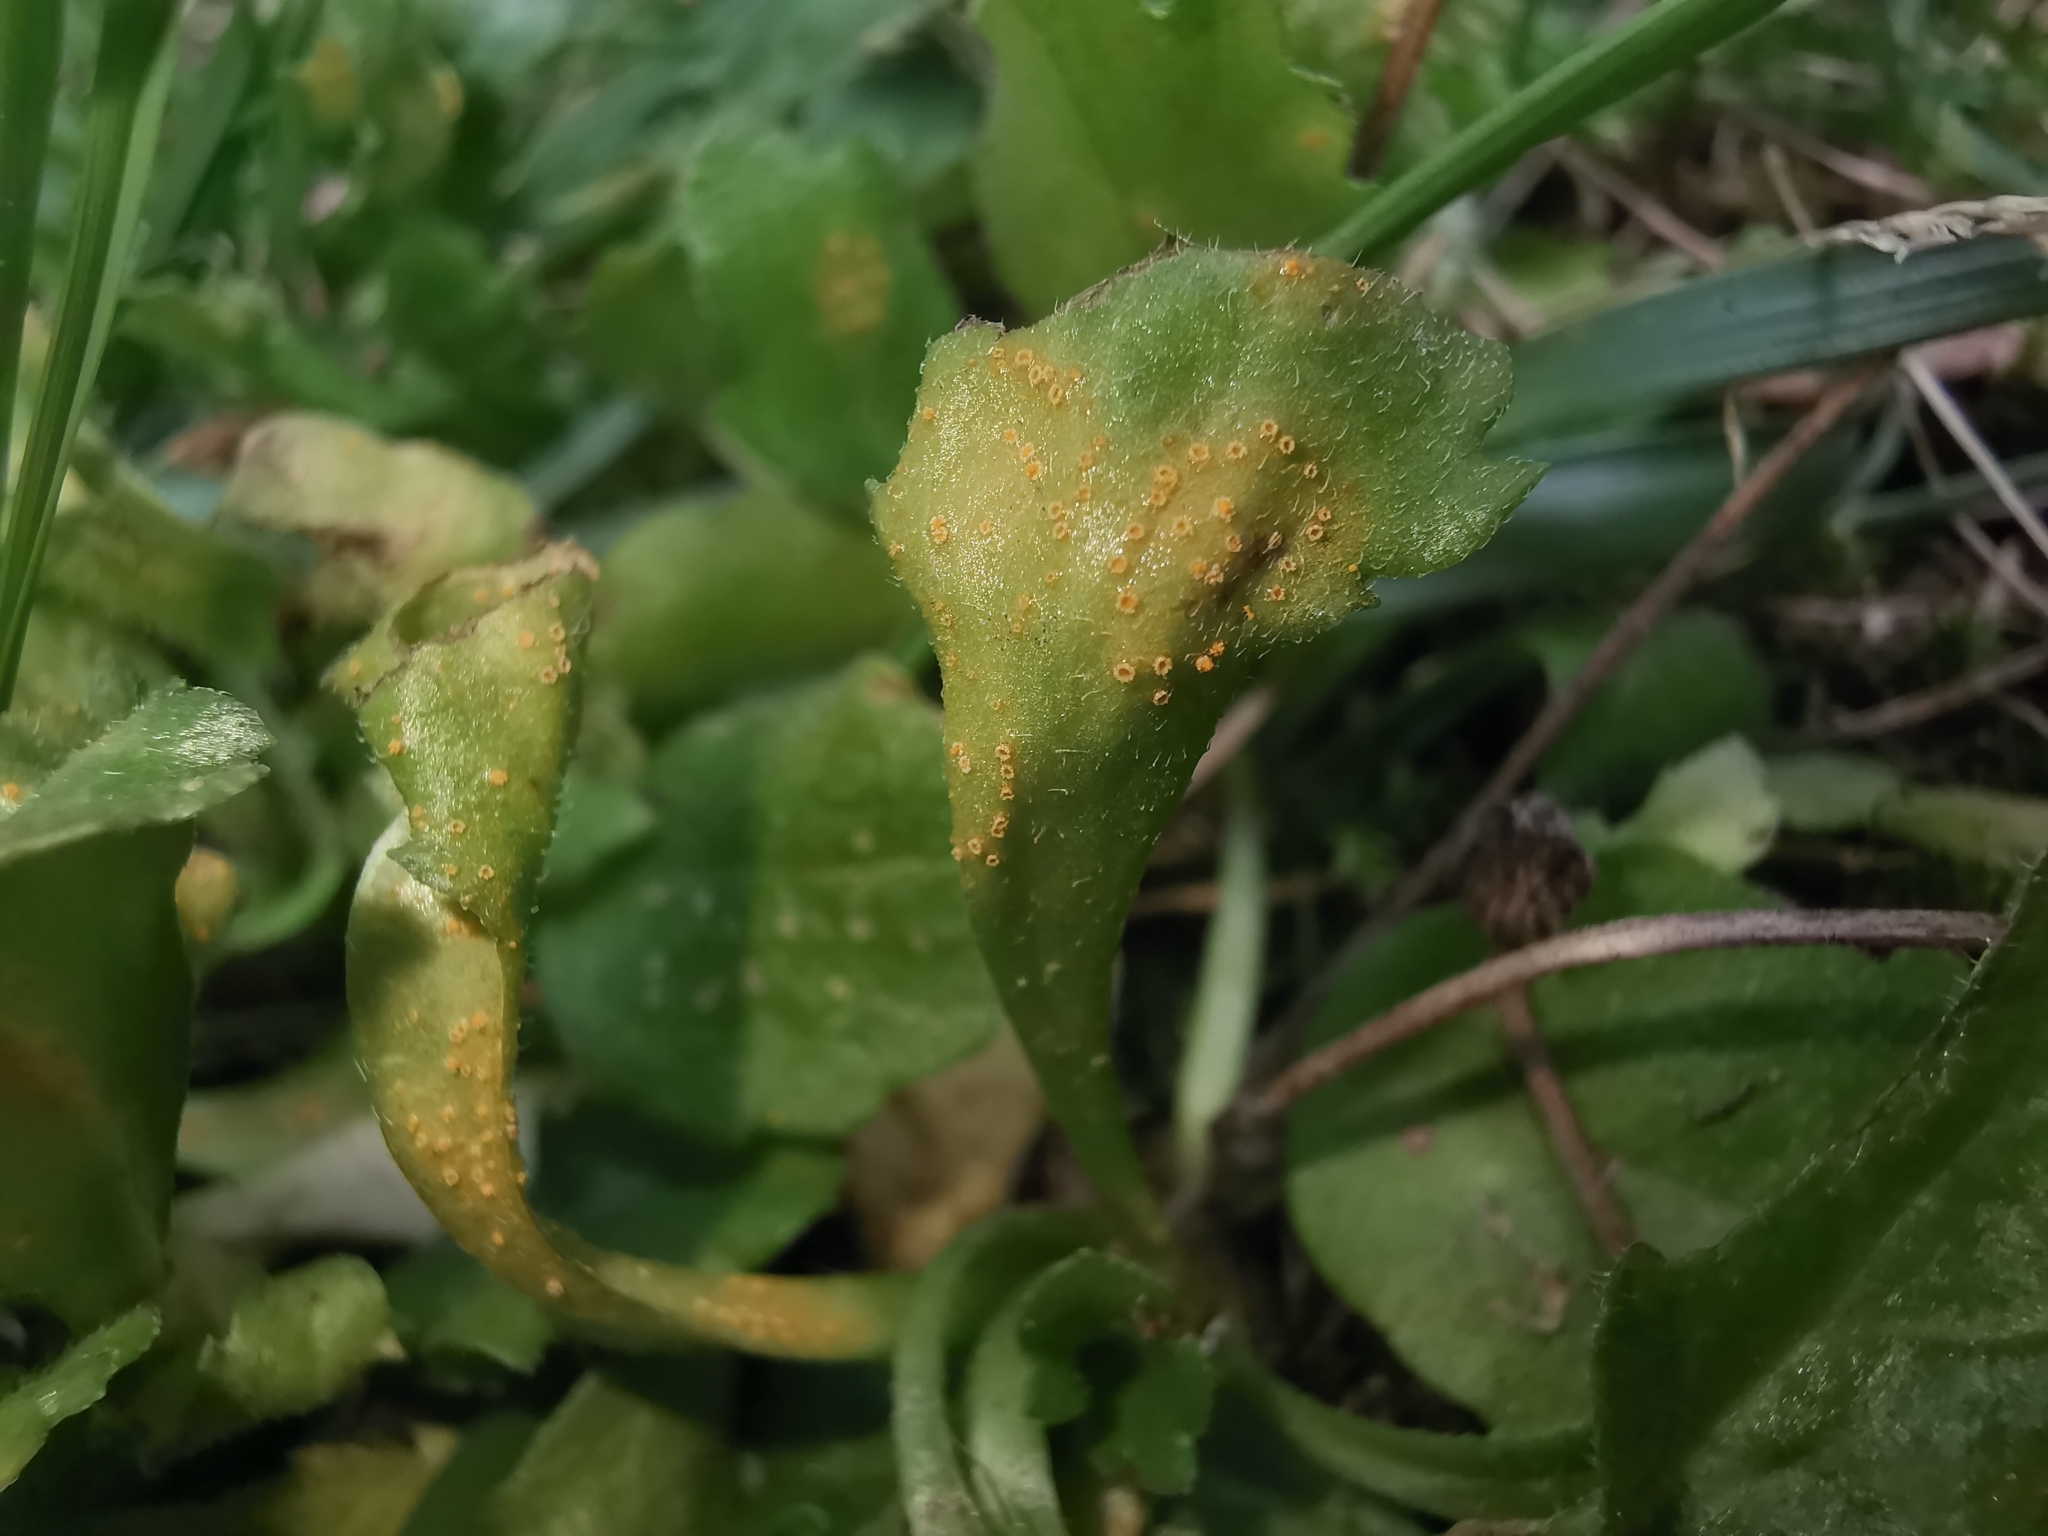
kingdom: Fungi
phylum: Basidiomycota
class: Pucciniomycetes
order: Pucciniales
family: Pucciniaceae
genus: Puccinia
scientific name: Puccinia lagenophorae
